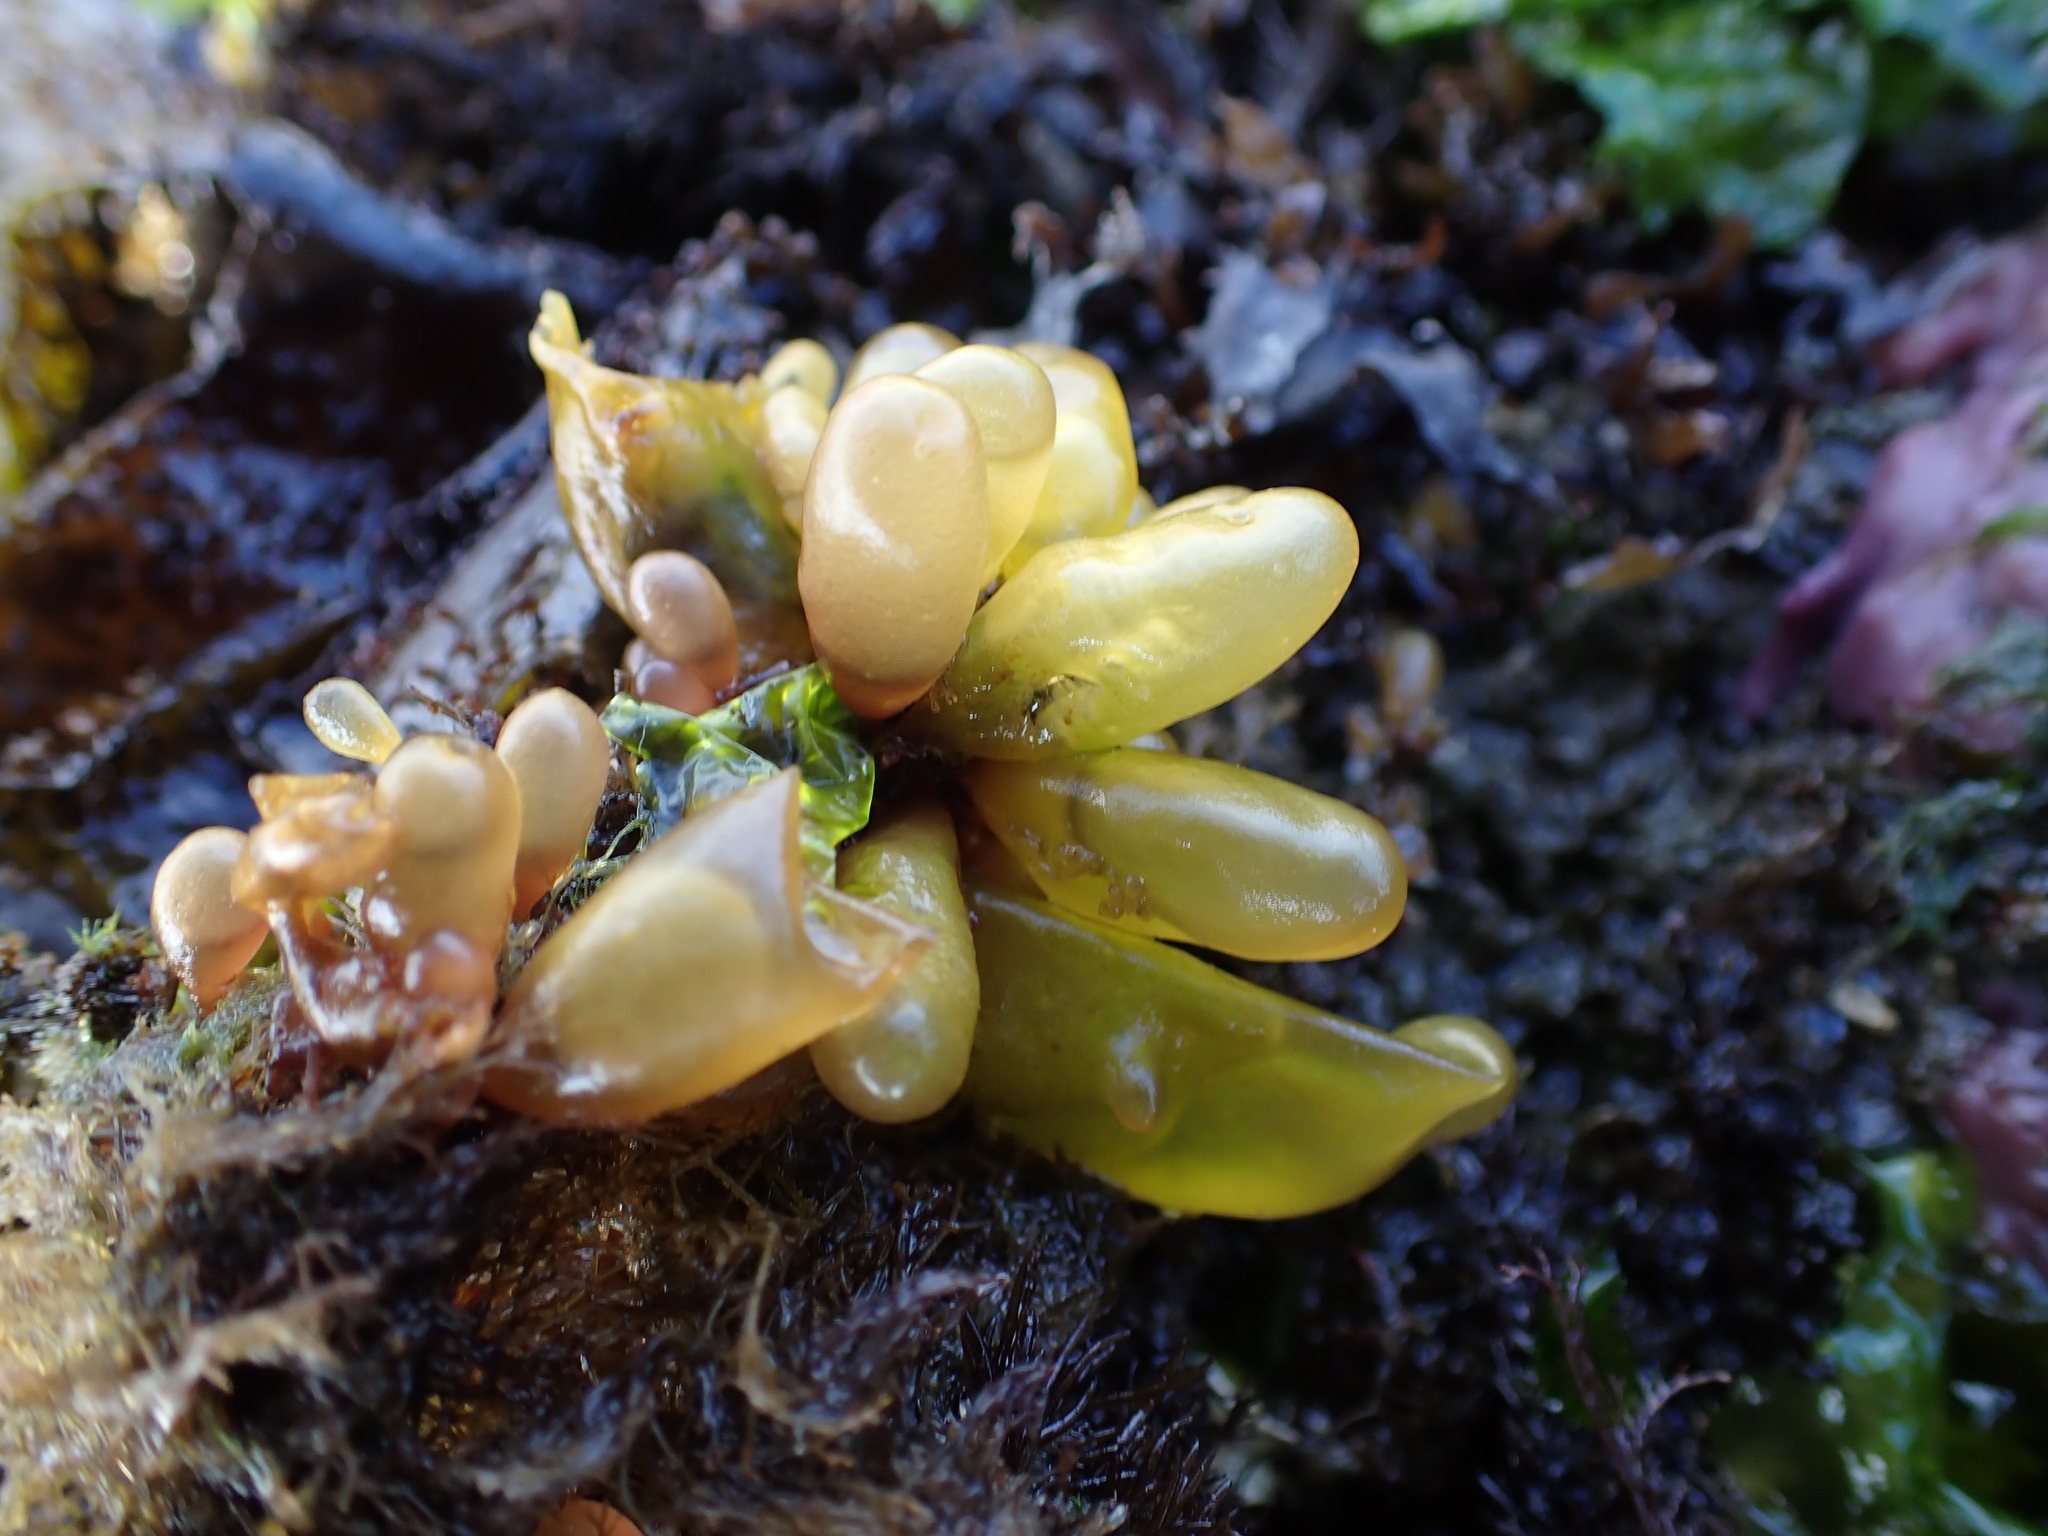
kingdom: Plantae
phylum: Rhodophyta
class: Florideophyceae
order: Palmariales
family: Palmariaceae
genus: Halosaccion
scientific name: Halosaccion glandiforme
